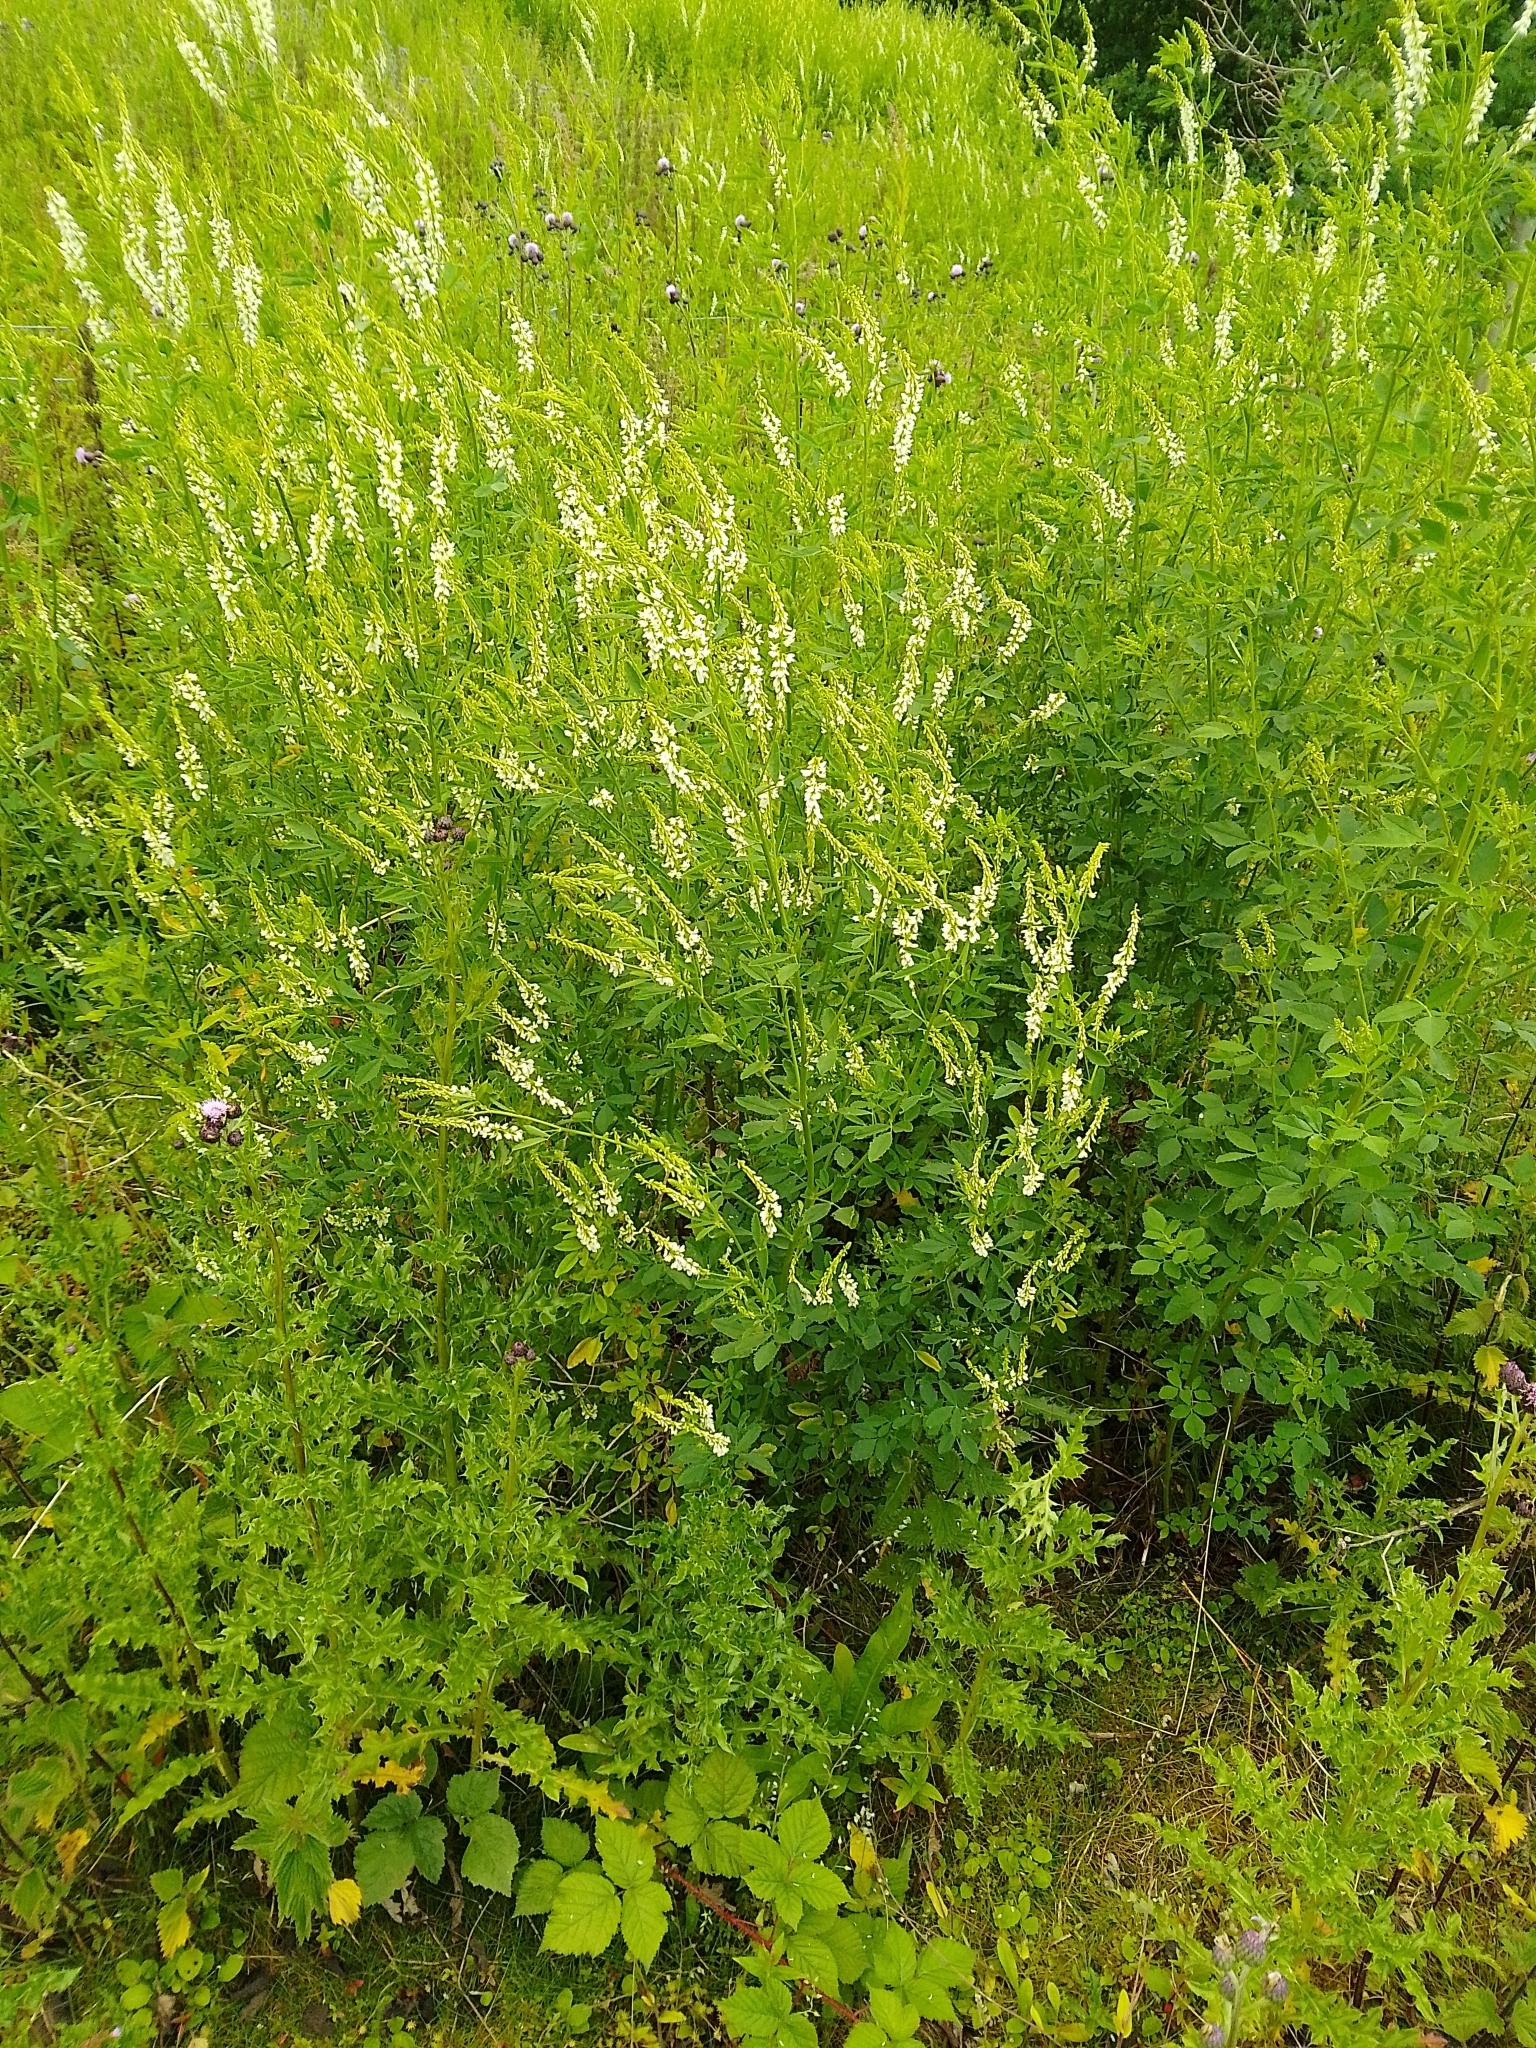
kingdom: Plantae
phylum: Tracheophyta
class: Magnoliopsida
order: Fabales
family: Fabaceae
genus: Melilotus
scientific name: Melilotus albus
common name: White melilot
